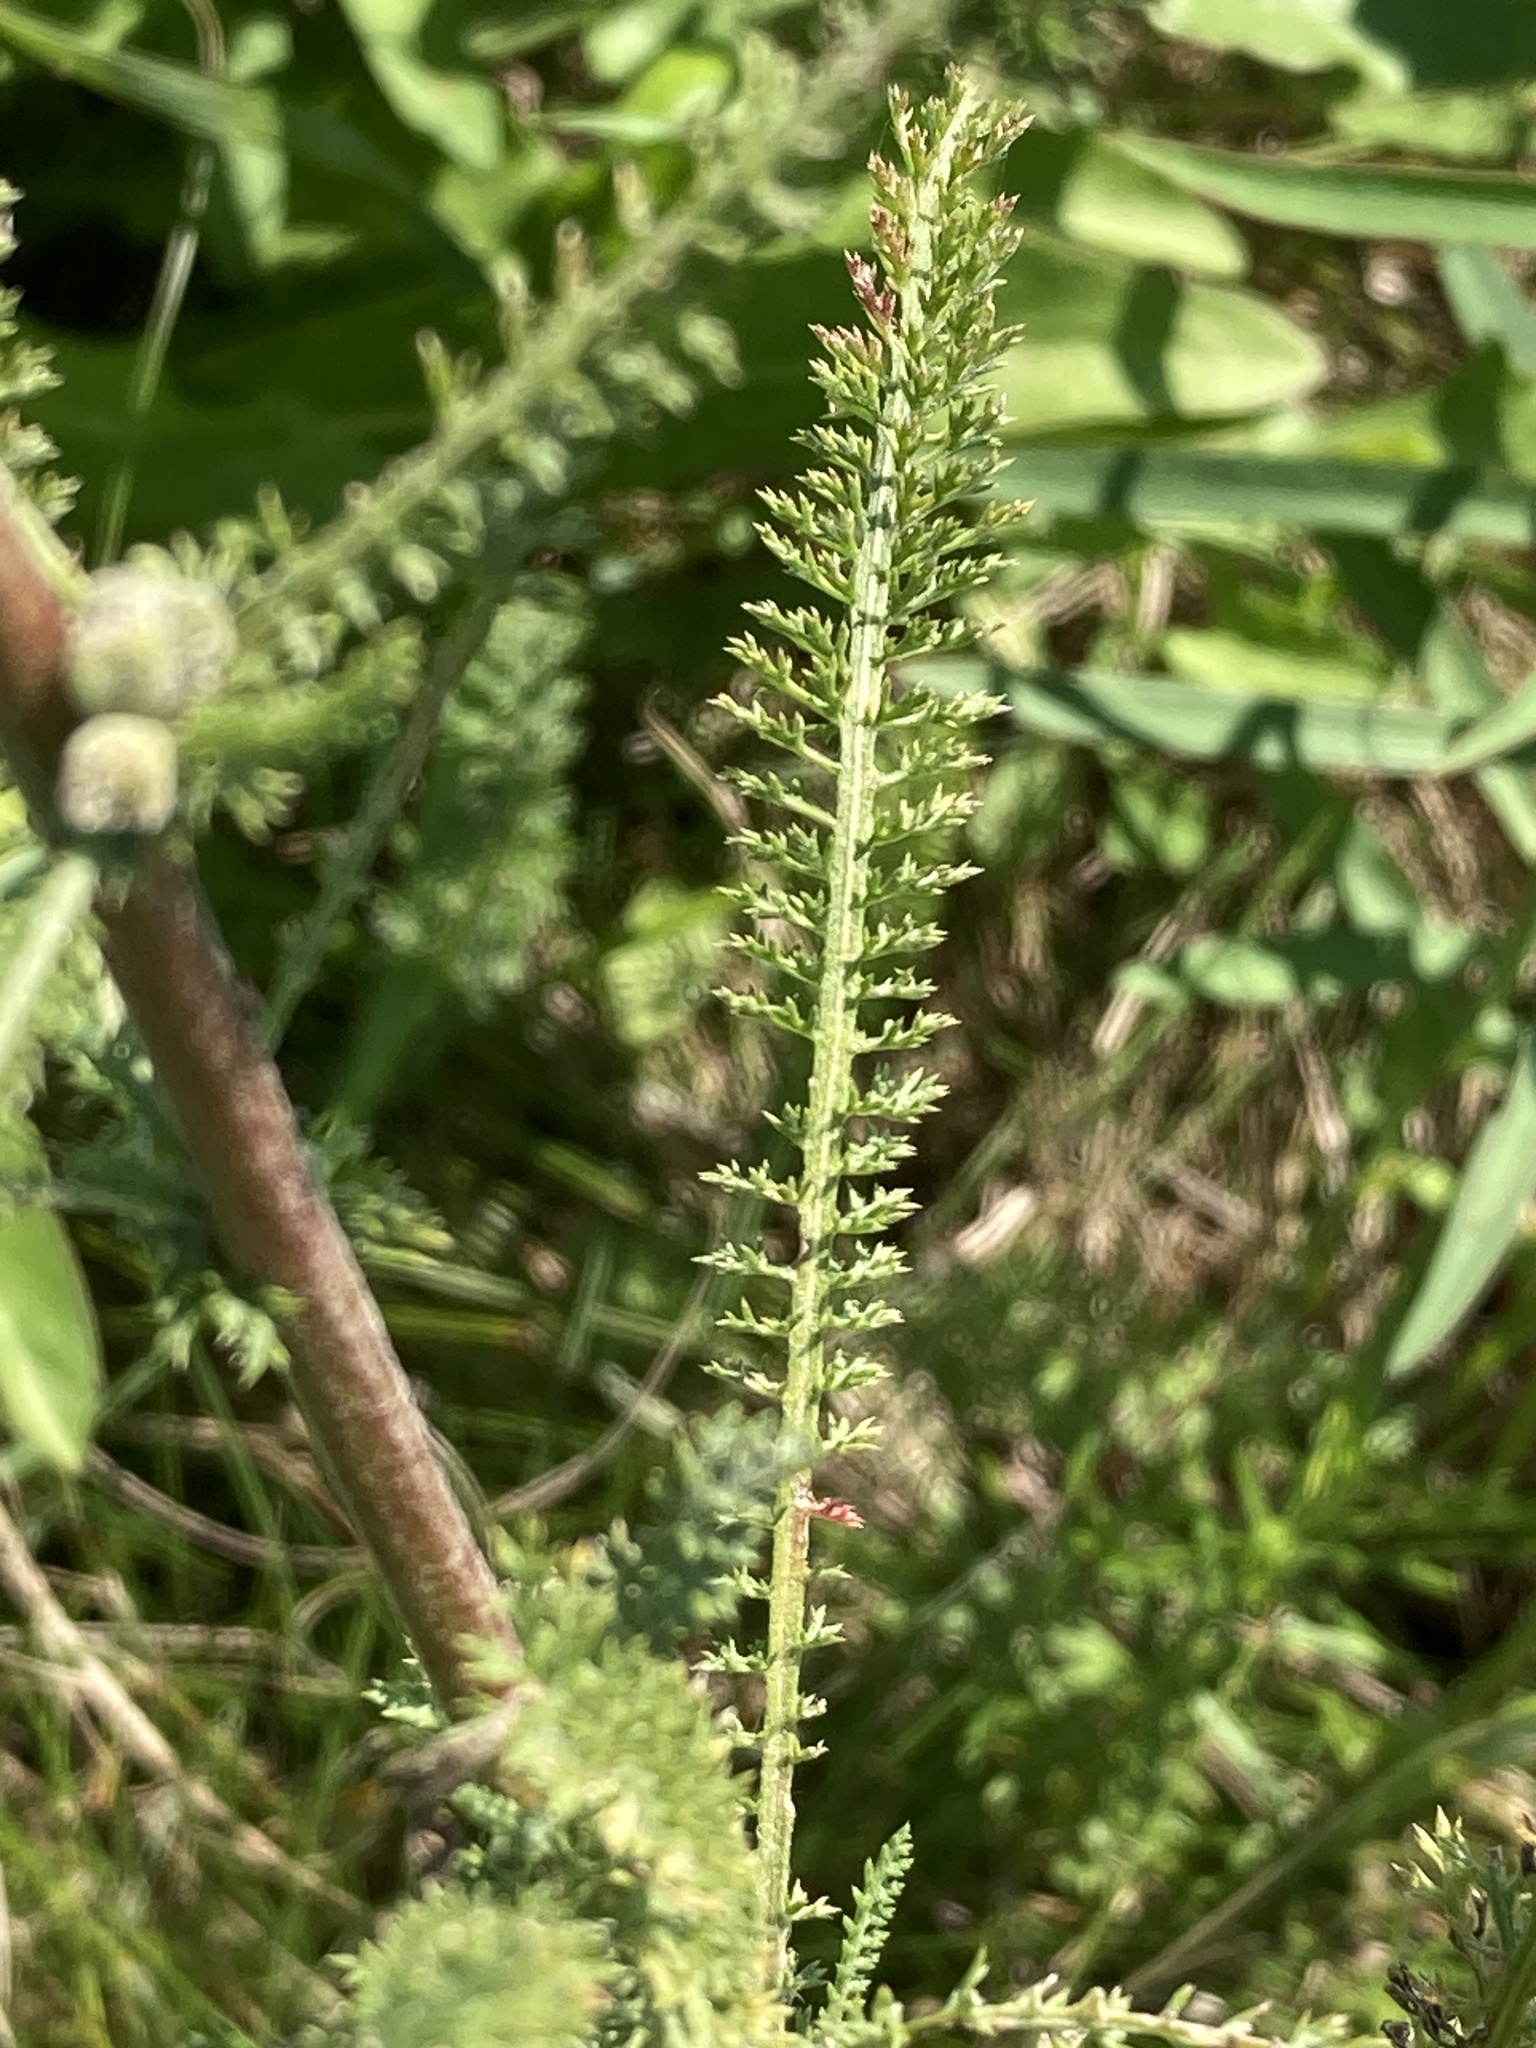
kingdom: Plantae
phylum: Tracheophyta
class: Magnoliopsida
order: Asterales
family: Asteraceae
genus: Achillea
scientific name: Achillea millefolium
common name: Yarrow
